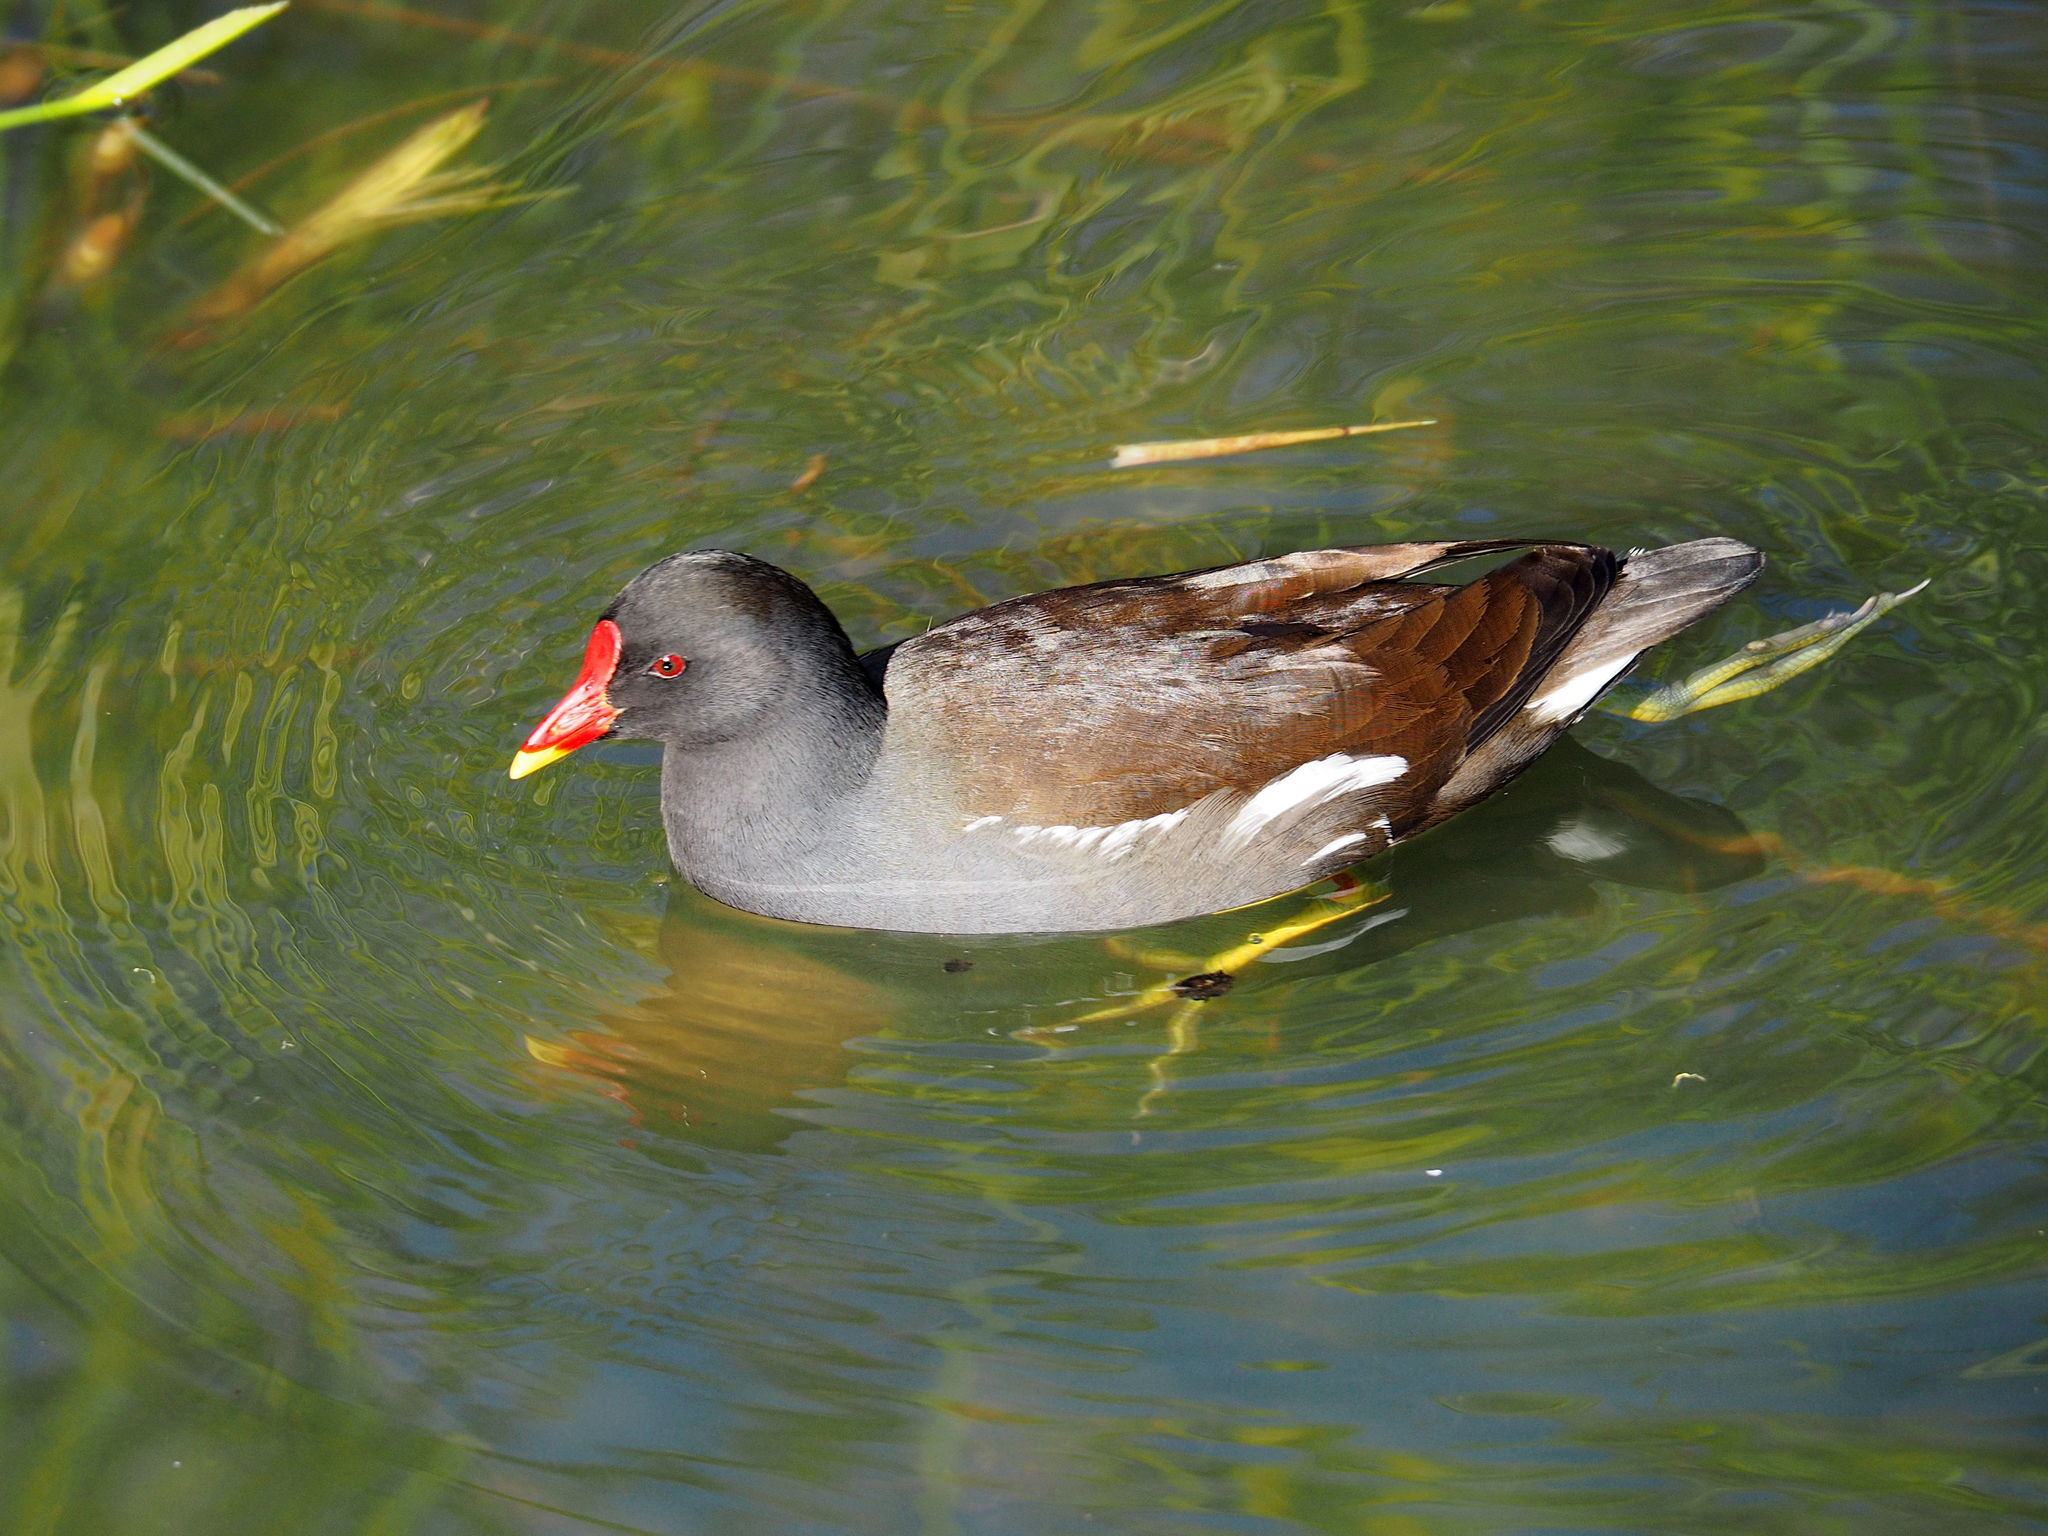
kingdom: Animalia
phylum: Chordata
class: Aves
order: Gruiformes
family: Rallidae
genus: Gallinula
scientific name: Gallinula chloropus
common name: Common moorhen
